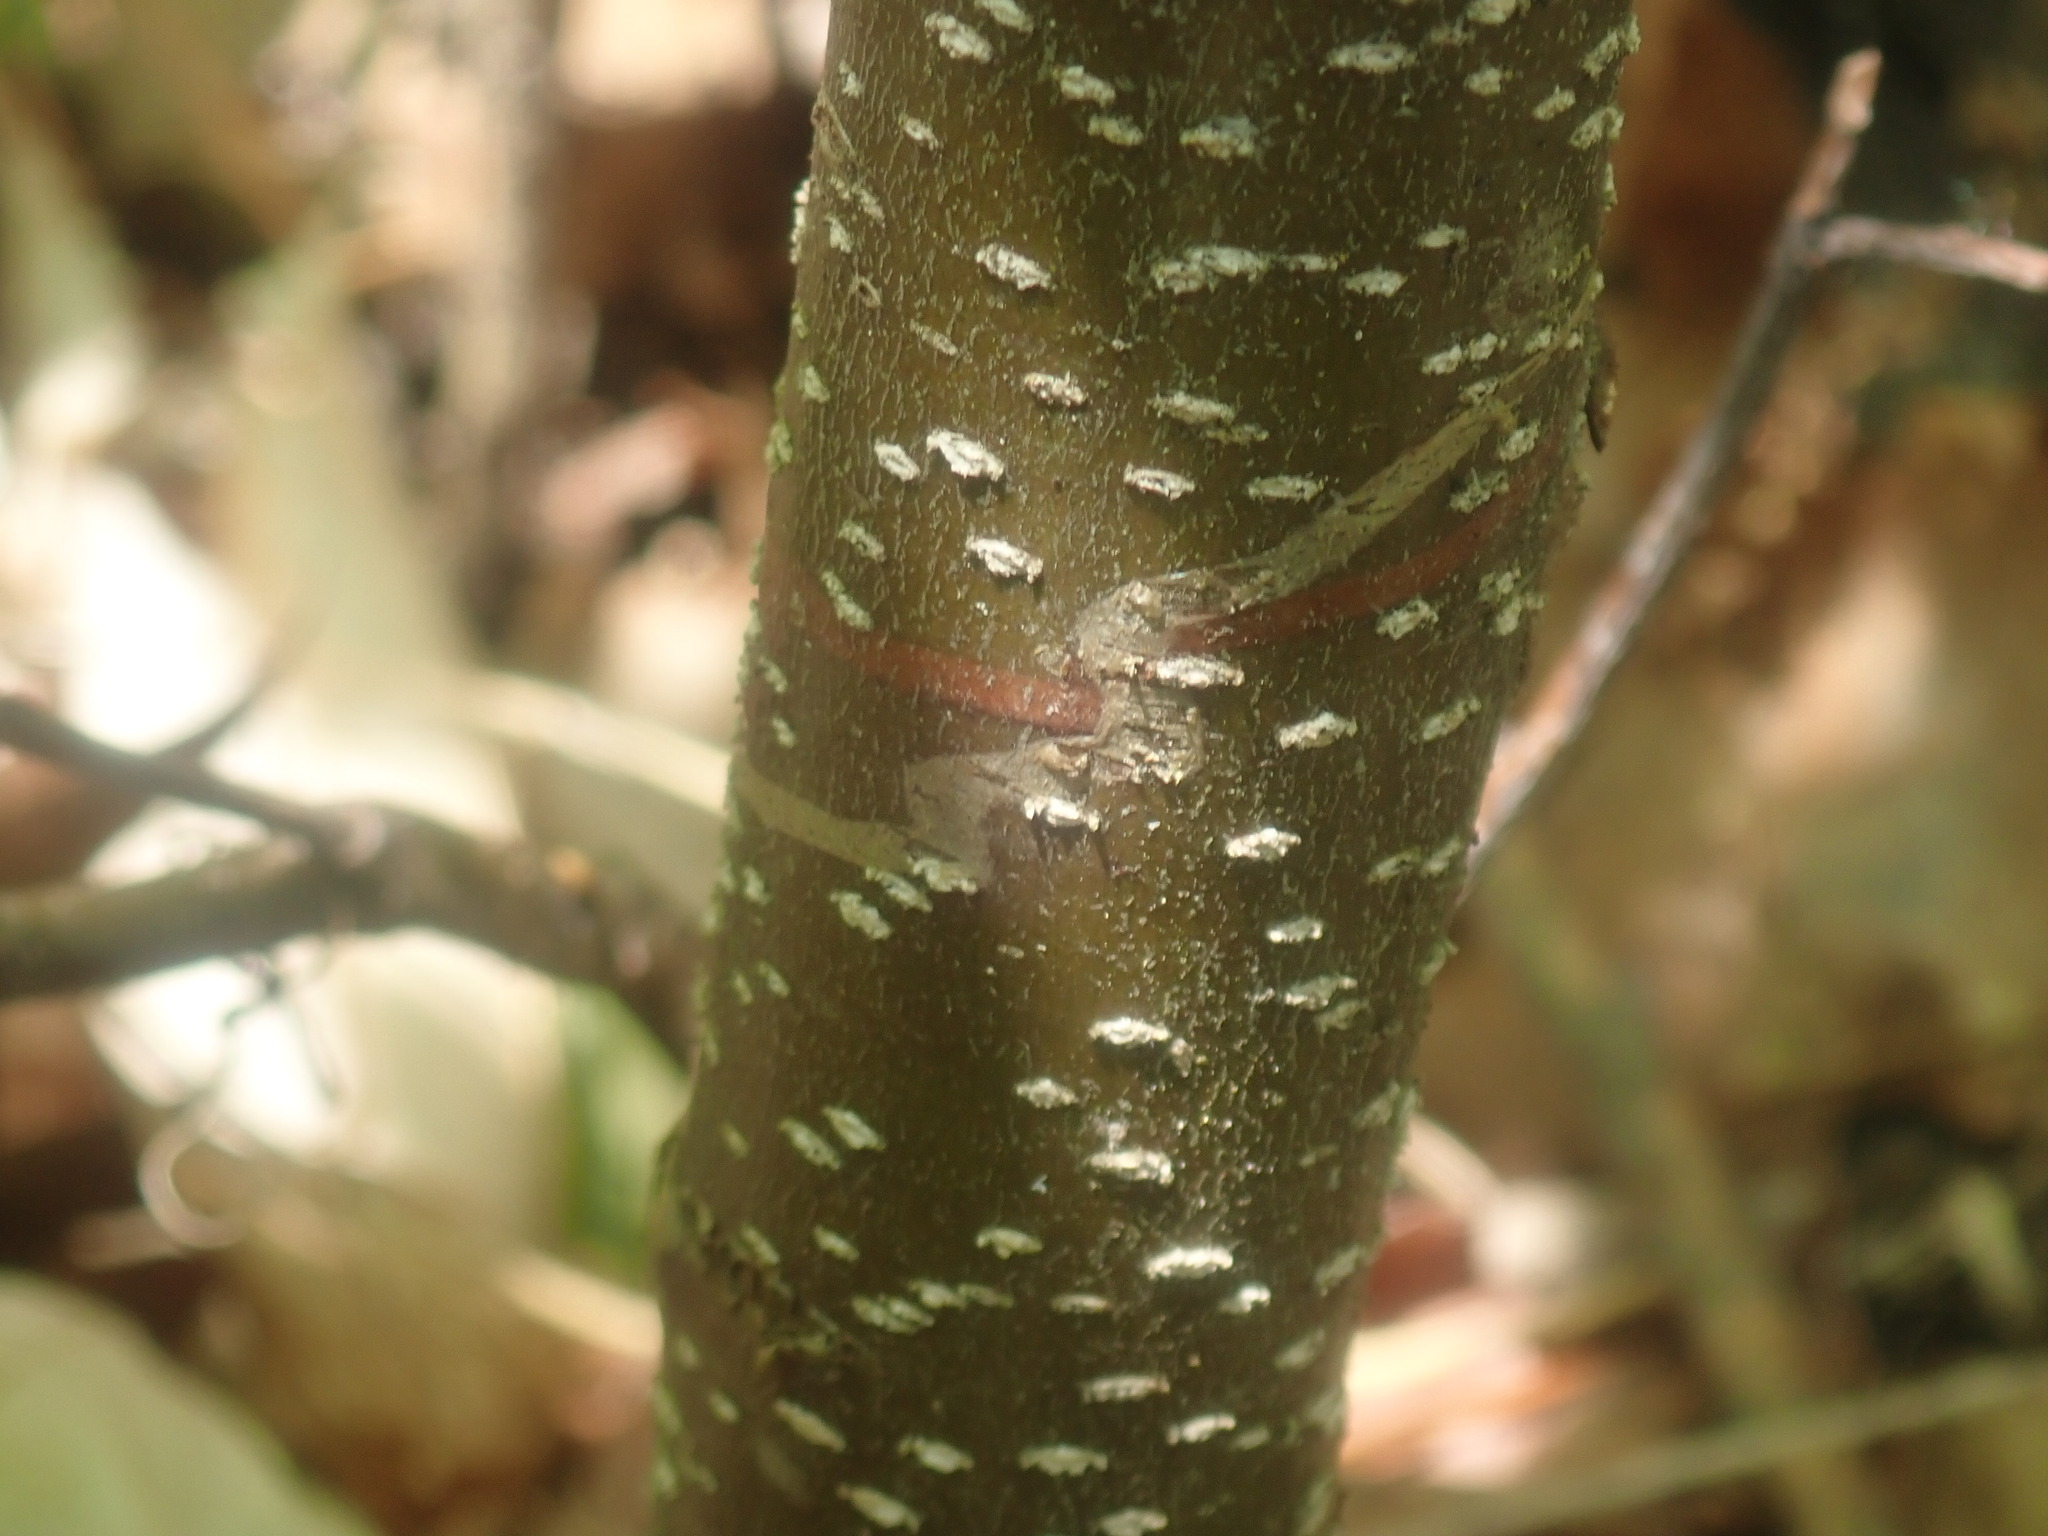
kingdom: Animalia
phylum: Arthropoda
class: Insecta
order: Lepidoptera
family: Gracillariidae
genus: Marmara
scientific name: Marmara serotinella
